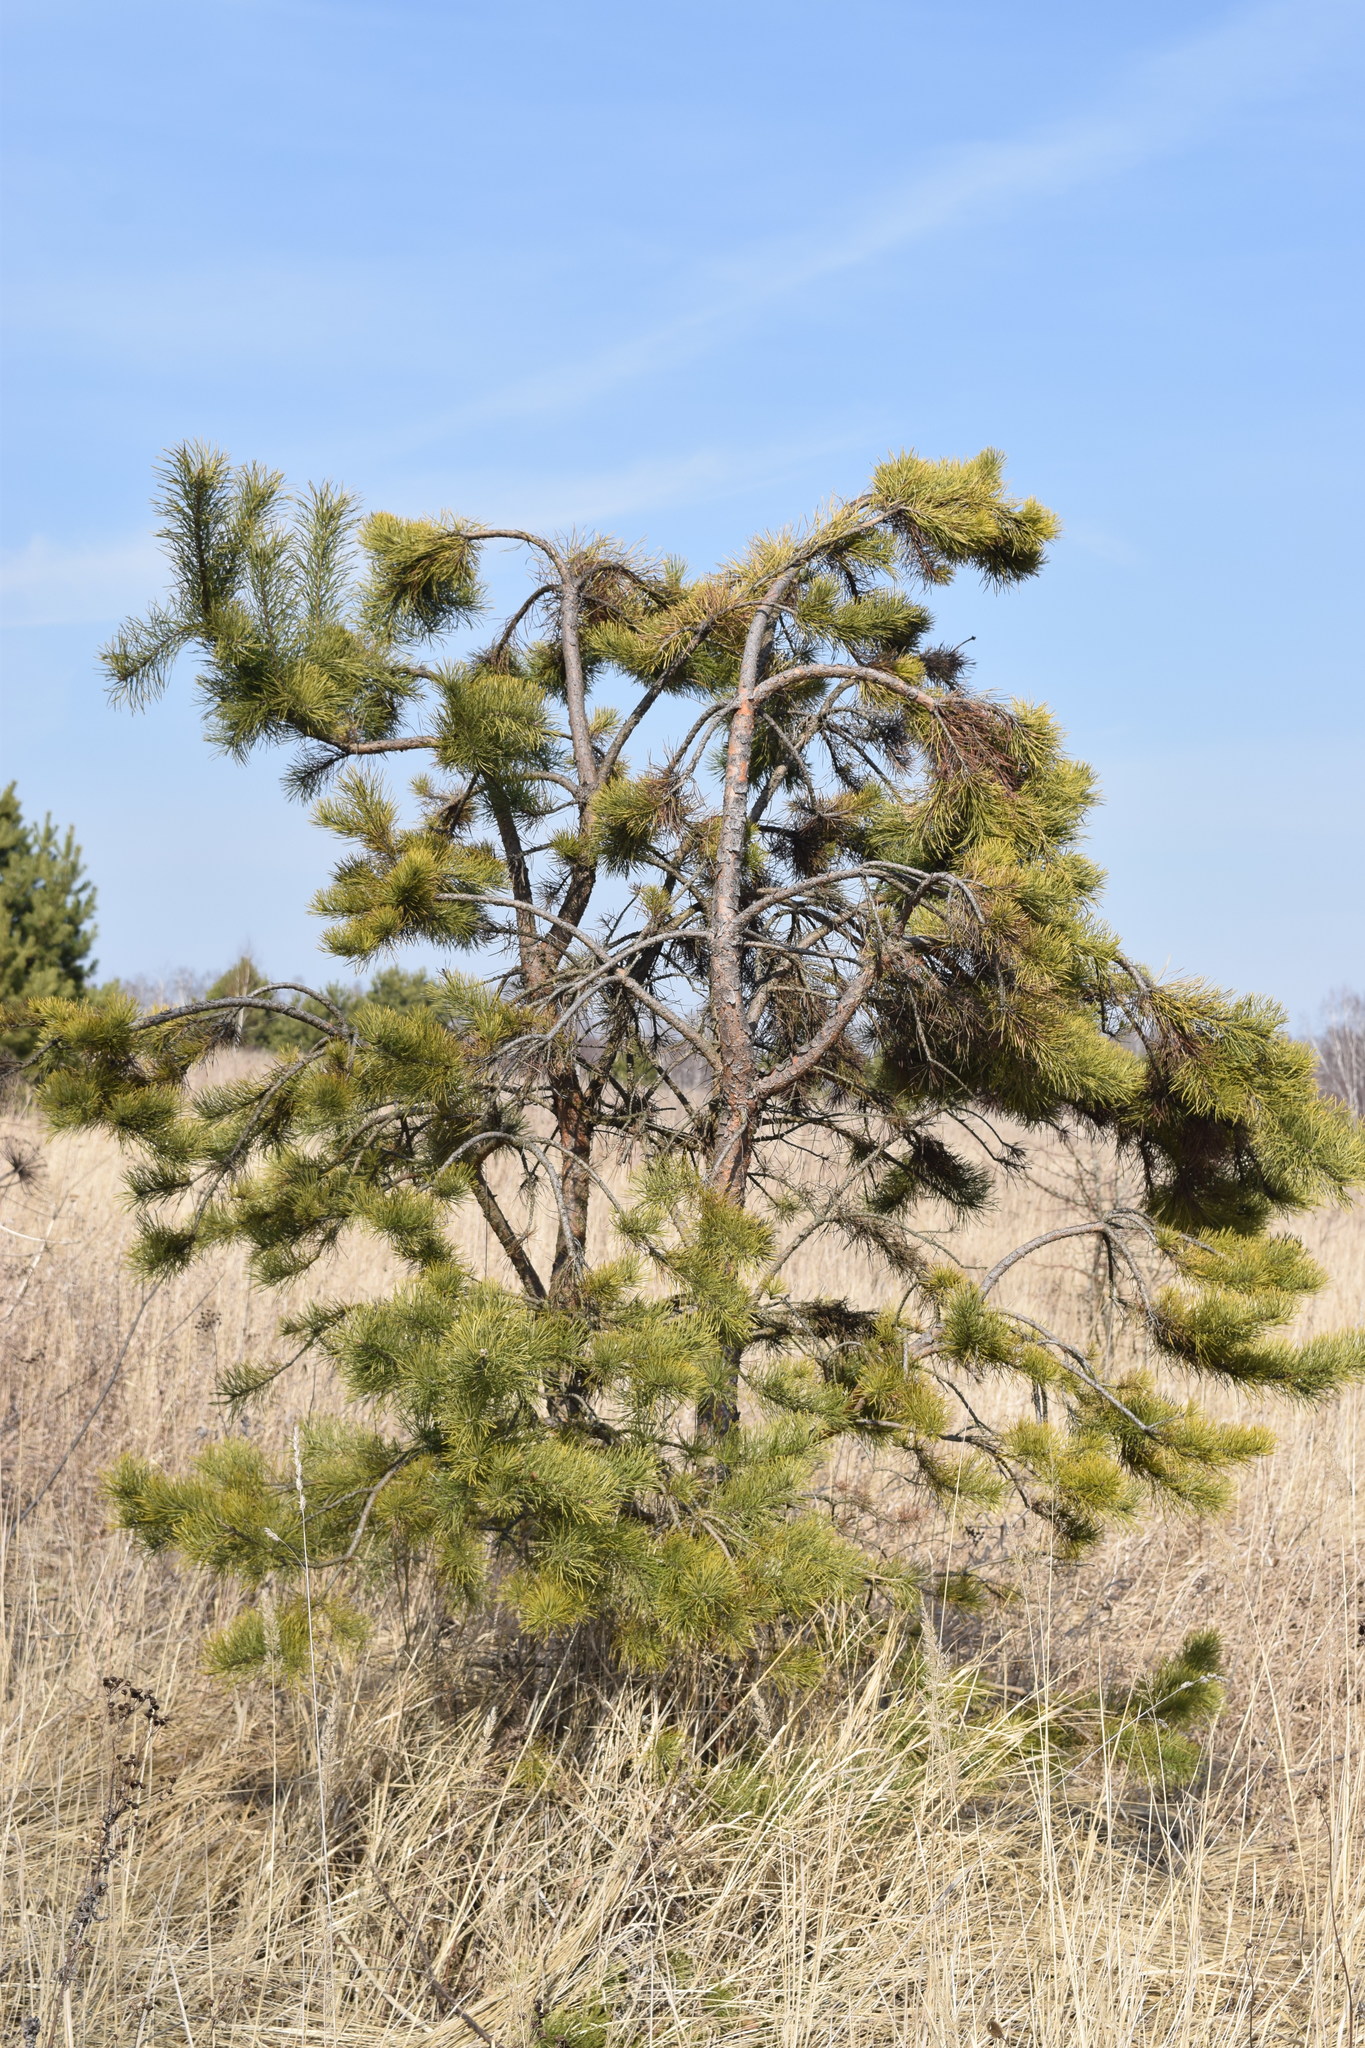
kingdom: Plantae
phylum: Tracheophyta
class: Pinopsida
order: Pinales
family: Pinaceae
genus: Pinus
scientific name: Pinus sylvestris
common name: Scots pine
